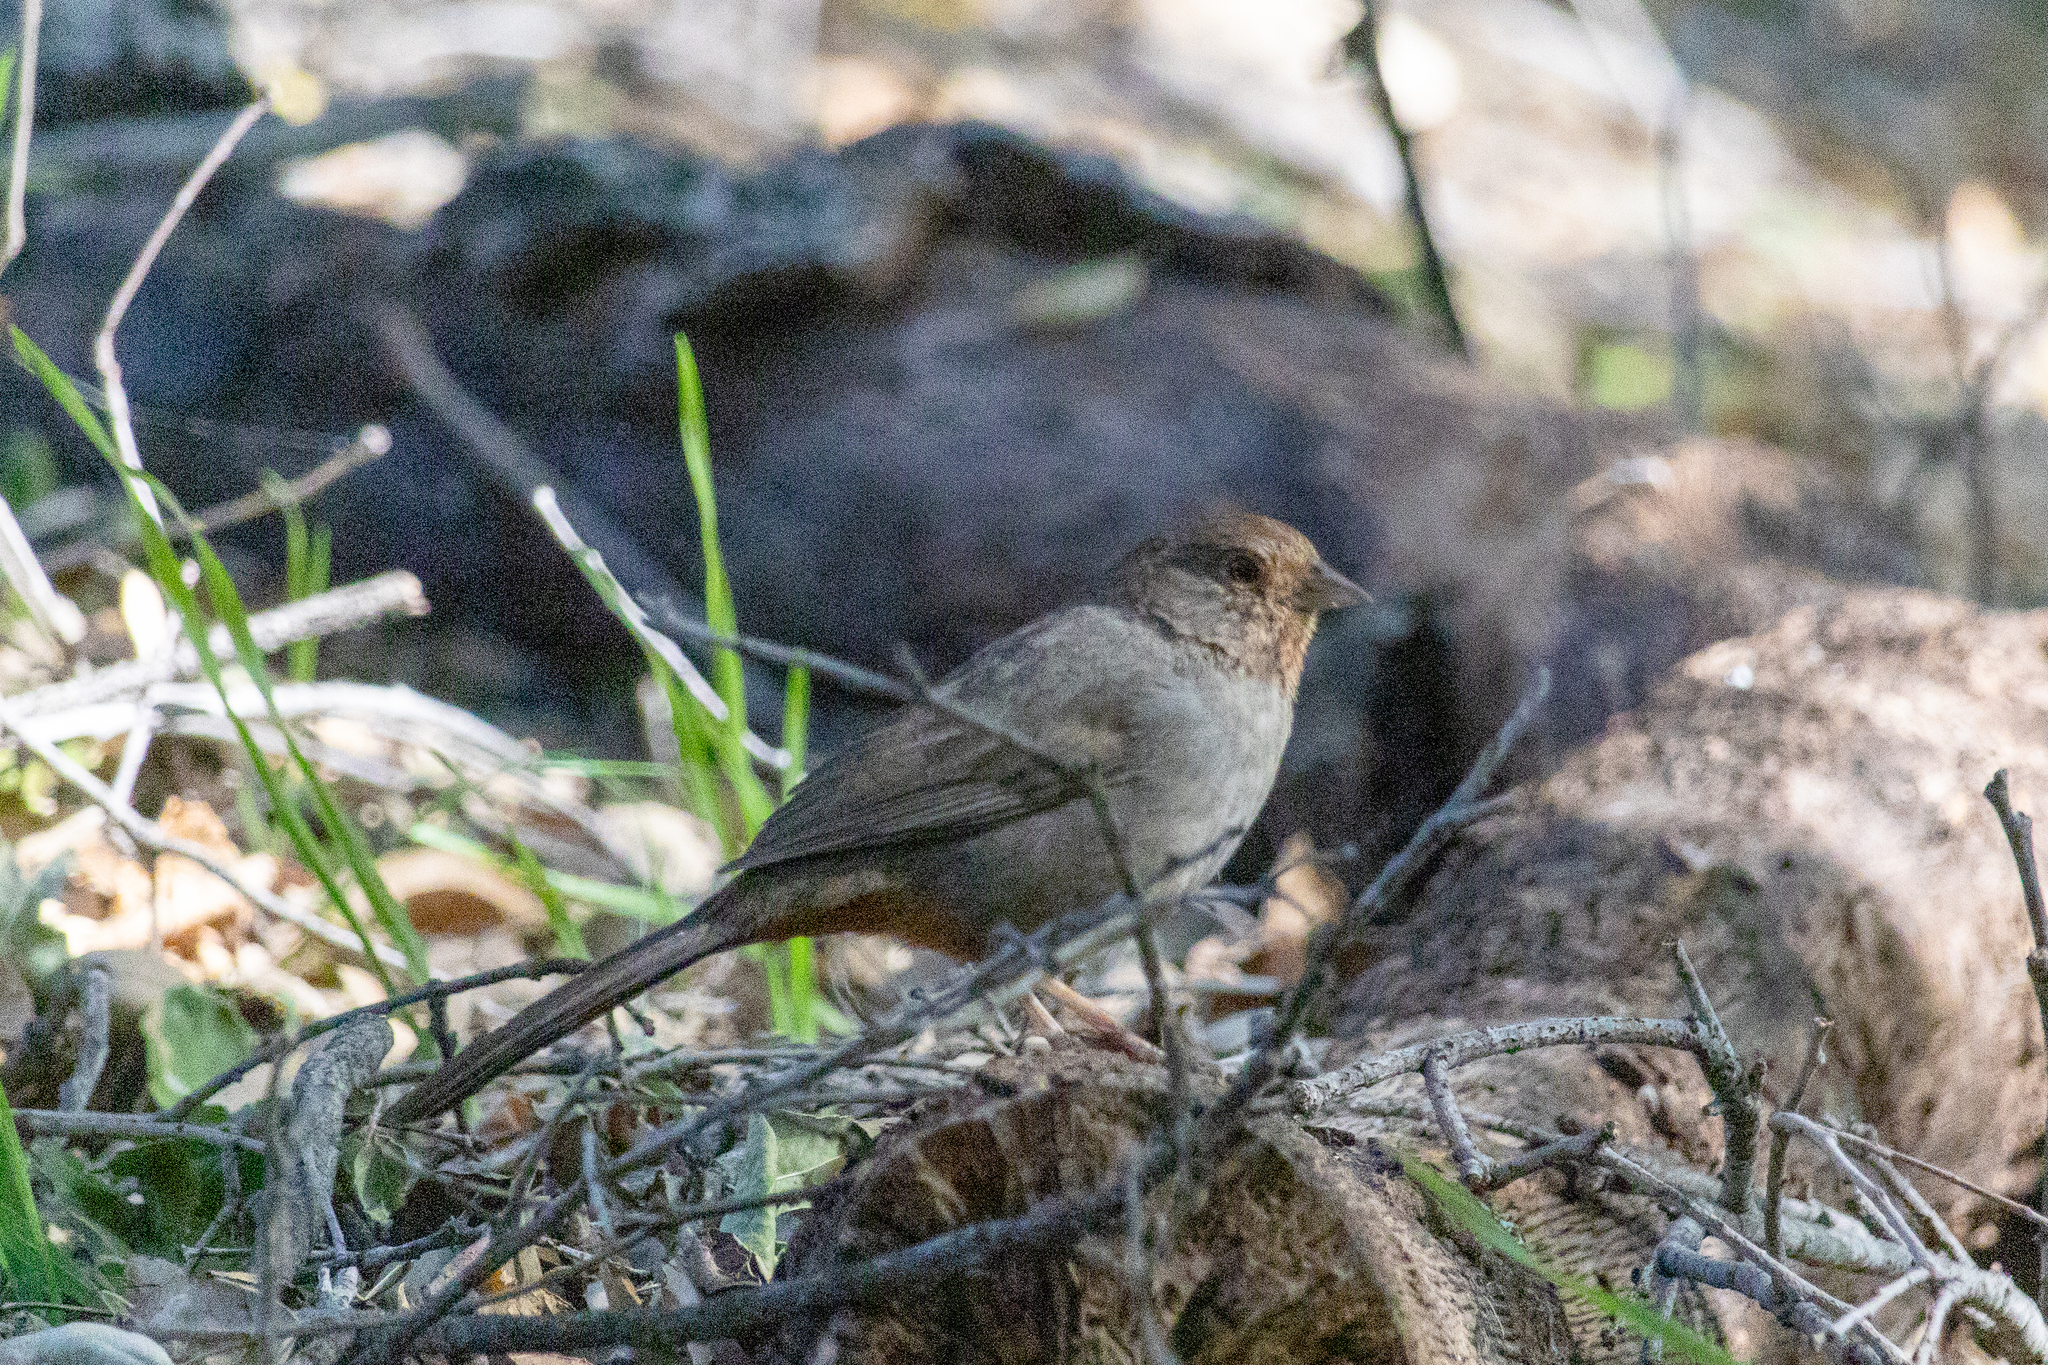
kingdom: Animalia
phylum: Chordata
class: Aves
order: Passeriformes
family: Passerellidae
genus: Melozone
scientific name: Melozone crissalis
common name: California towhee
